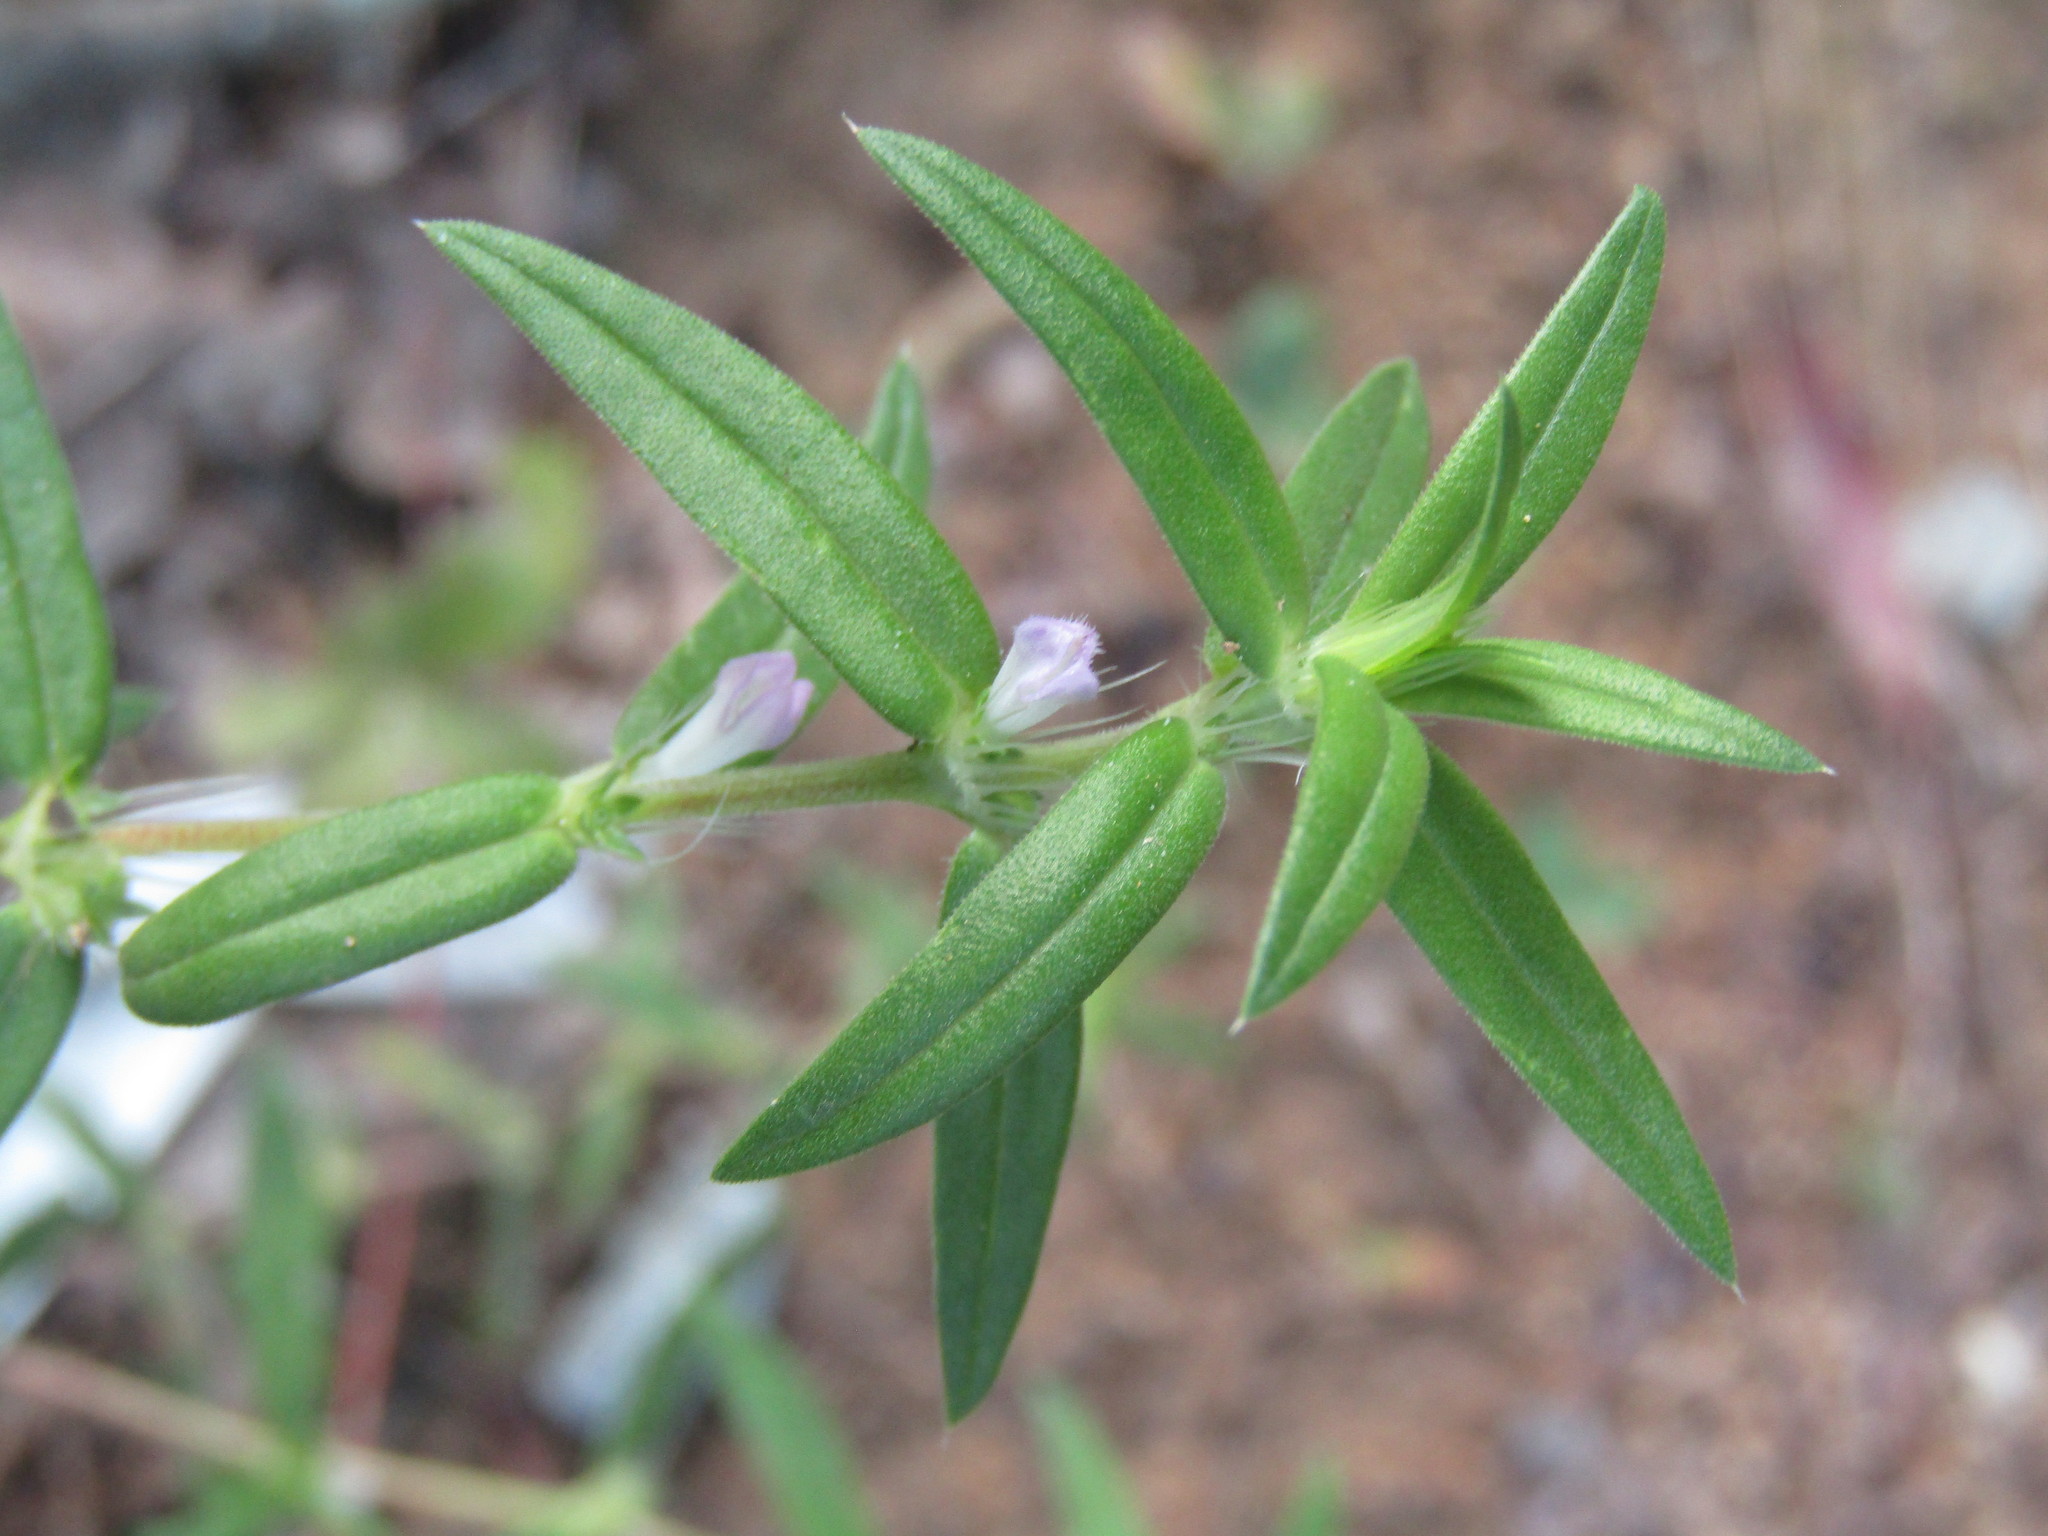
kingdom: Plantae
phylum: Tracheophyta
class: Magnoliopsida
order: Gentianales
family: Rubiaceae
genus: Hexasepalum
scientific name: Hexasepalum teres
